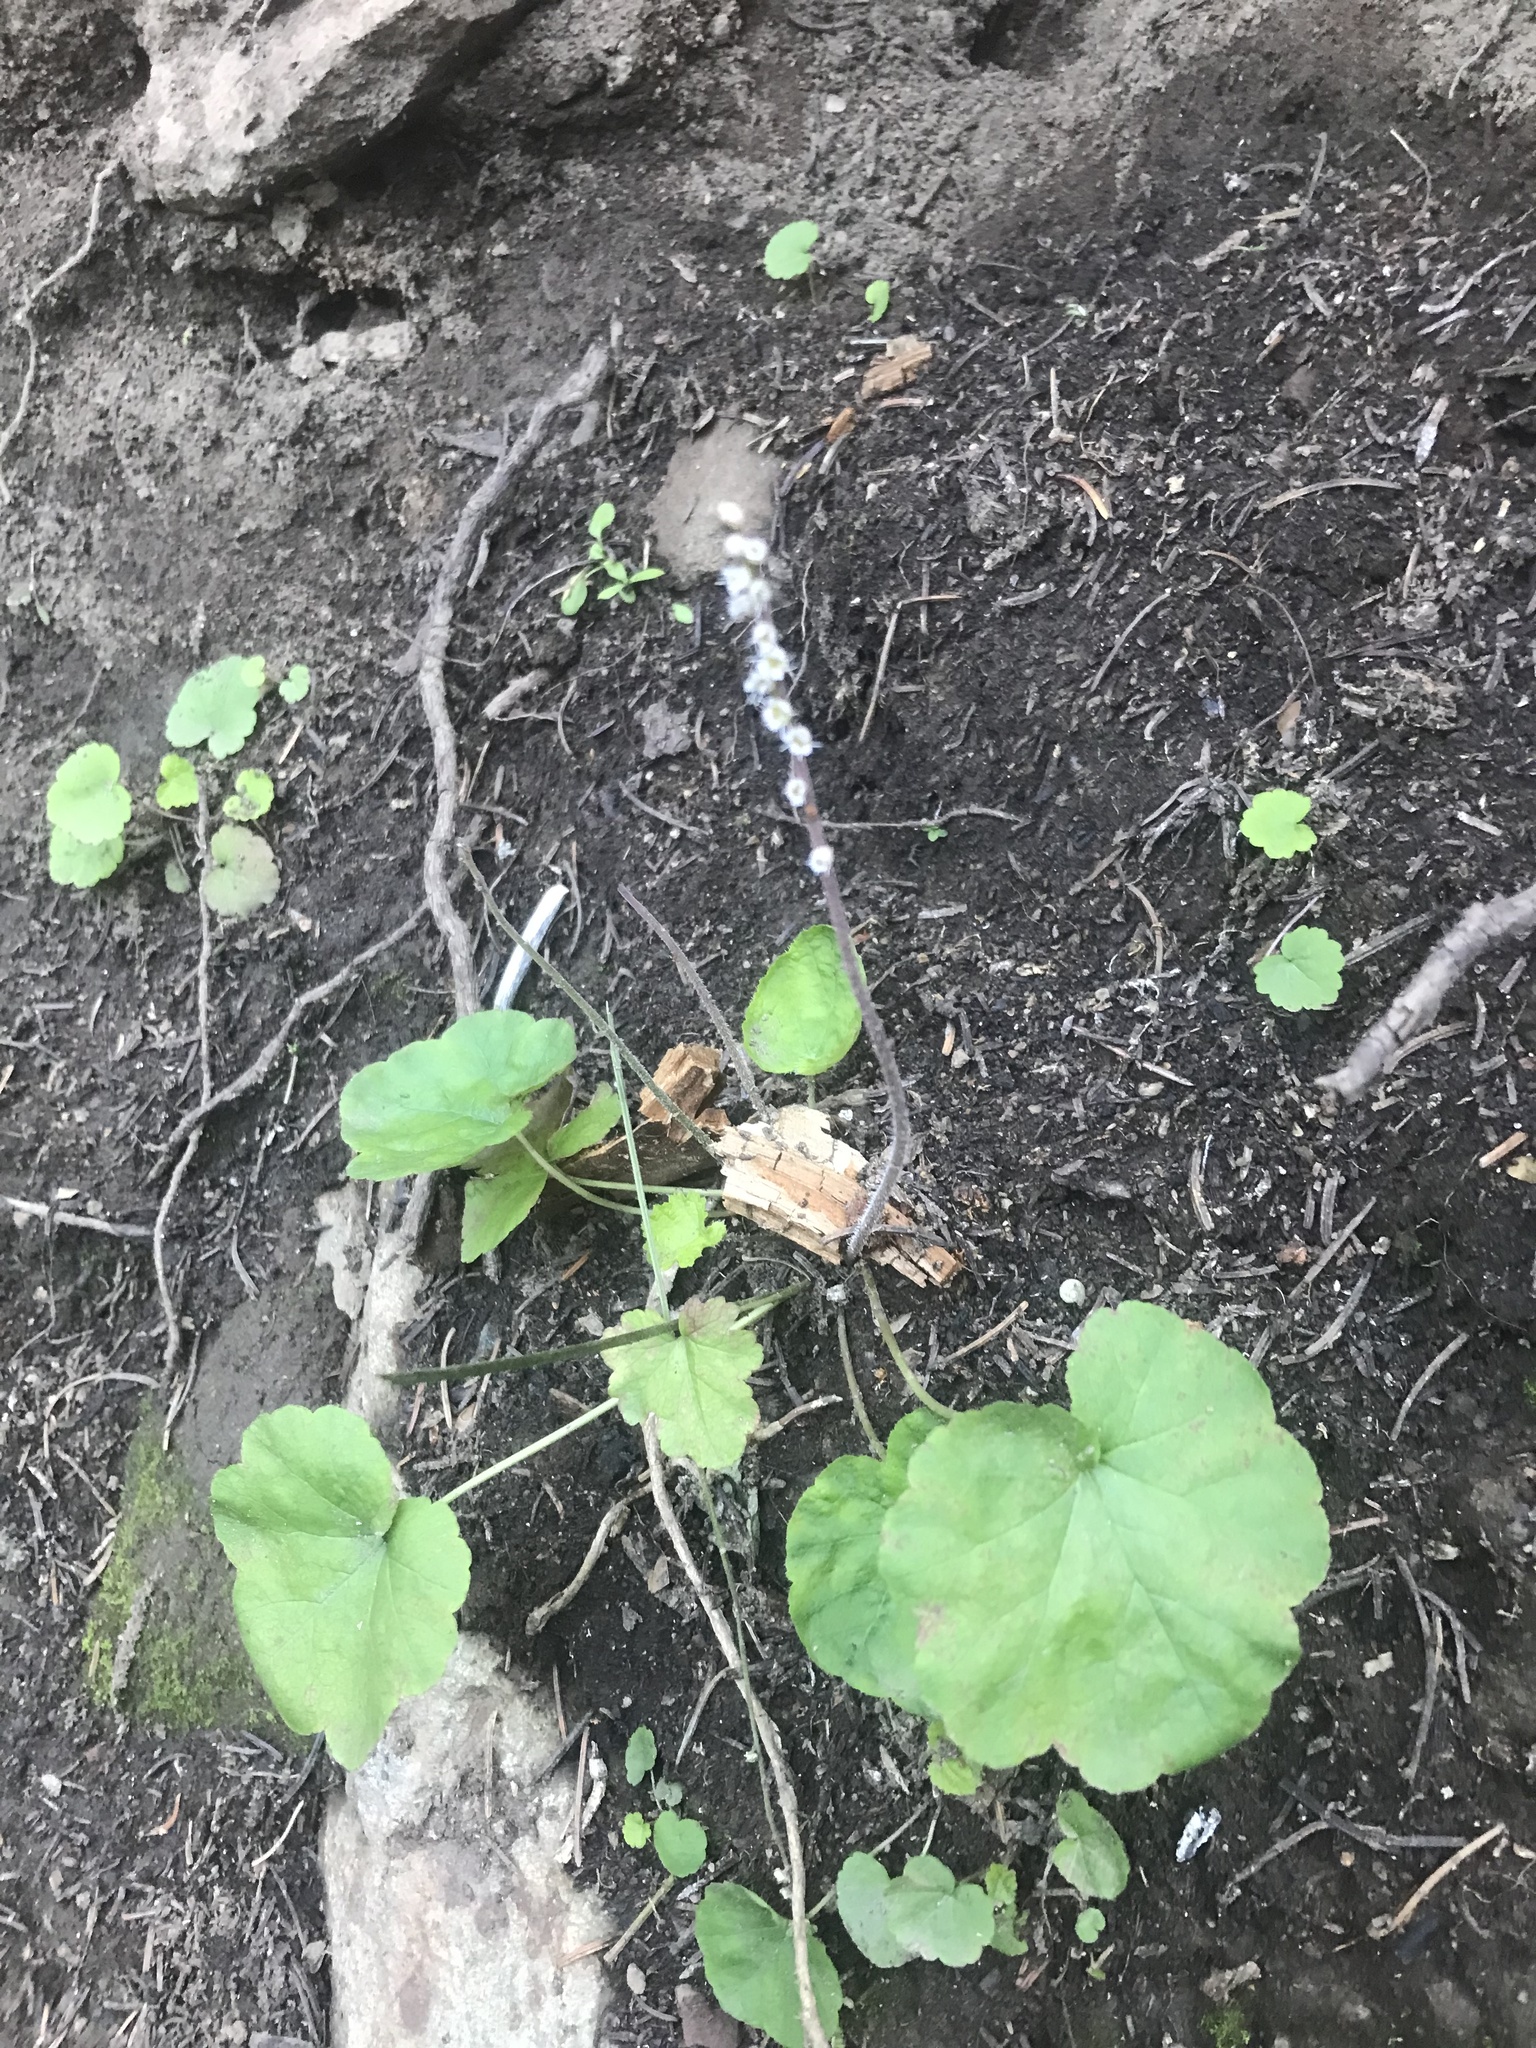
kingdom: Plantae
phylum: Tracheophyta
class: Magnoliopsida
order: Saxifragales
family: Saxifragaceae
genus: Ozomelis
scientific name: Ozomelis stauropetala
